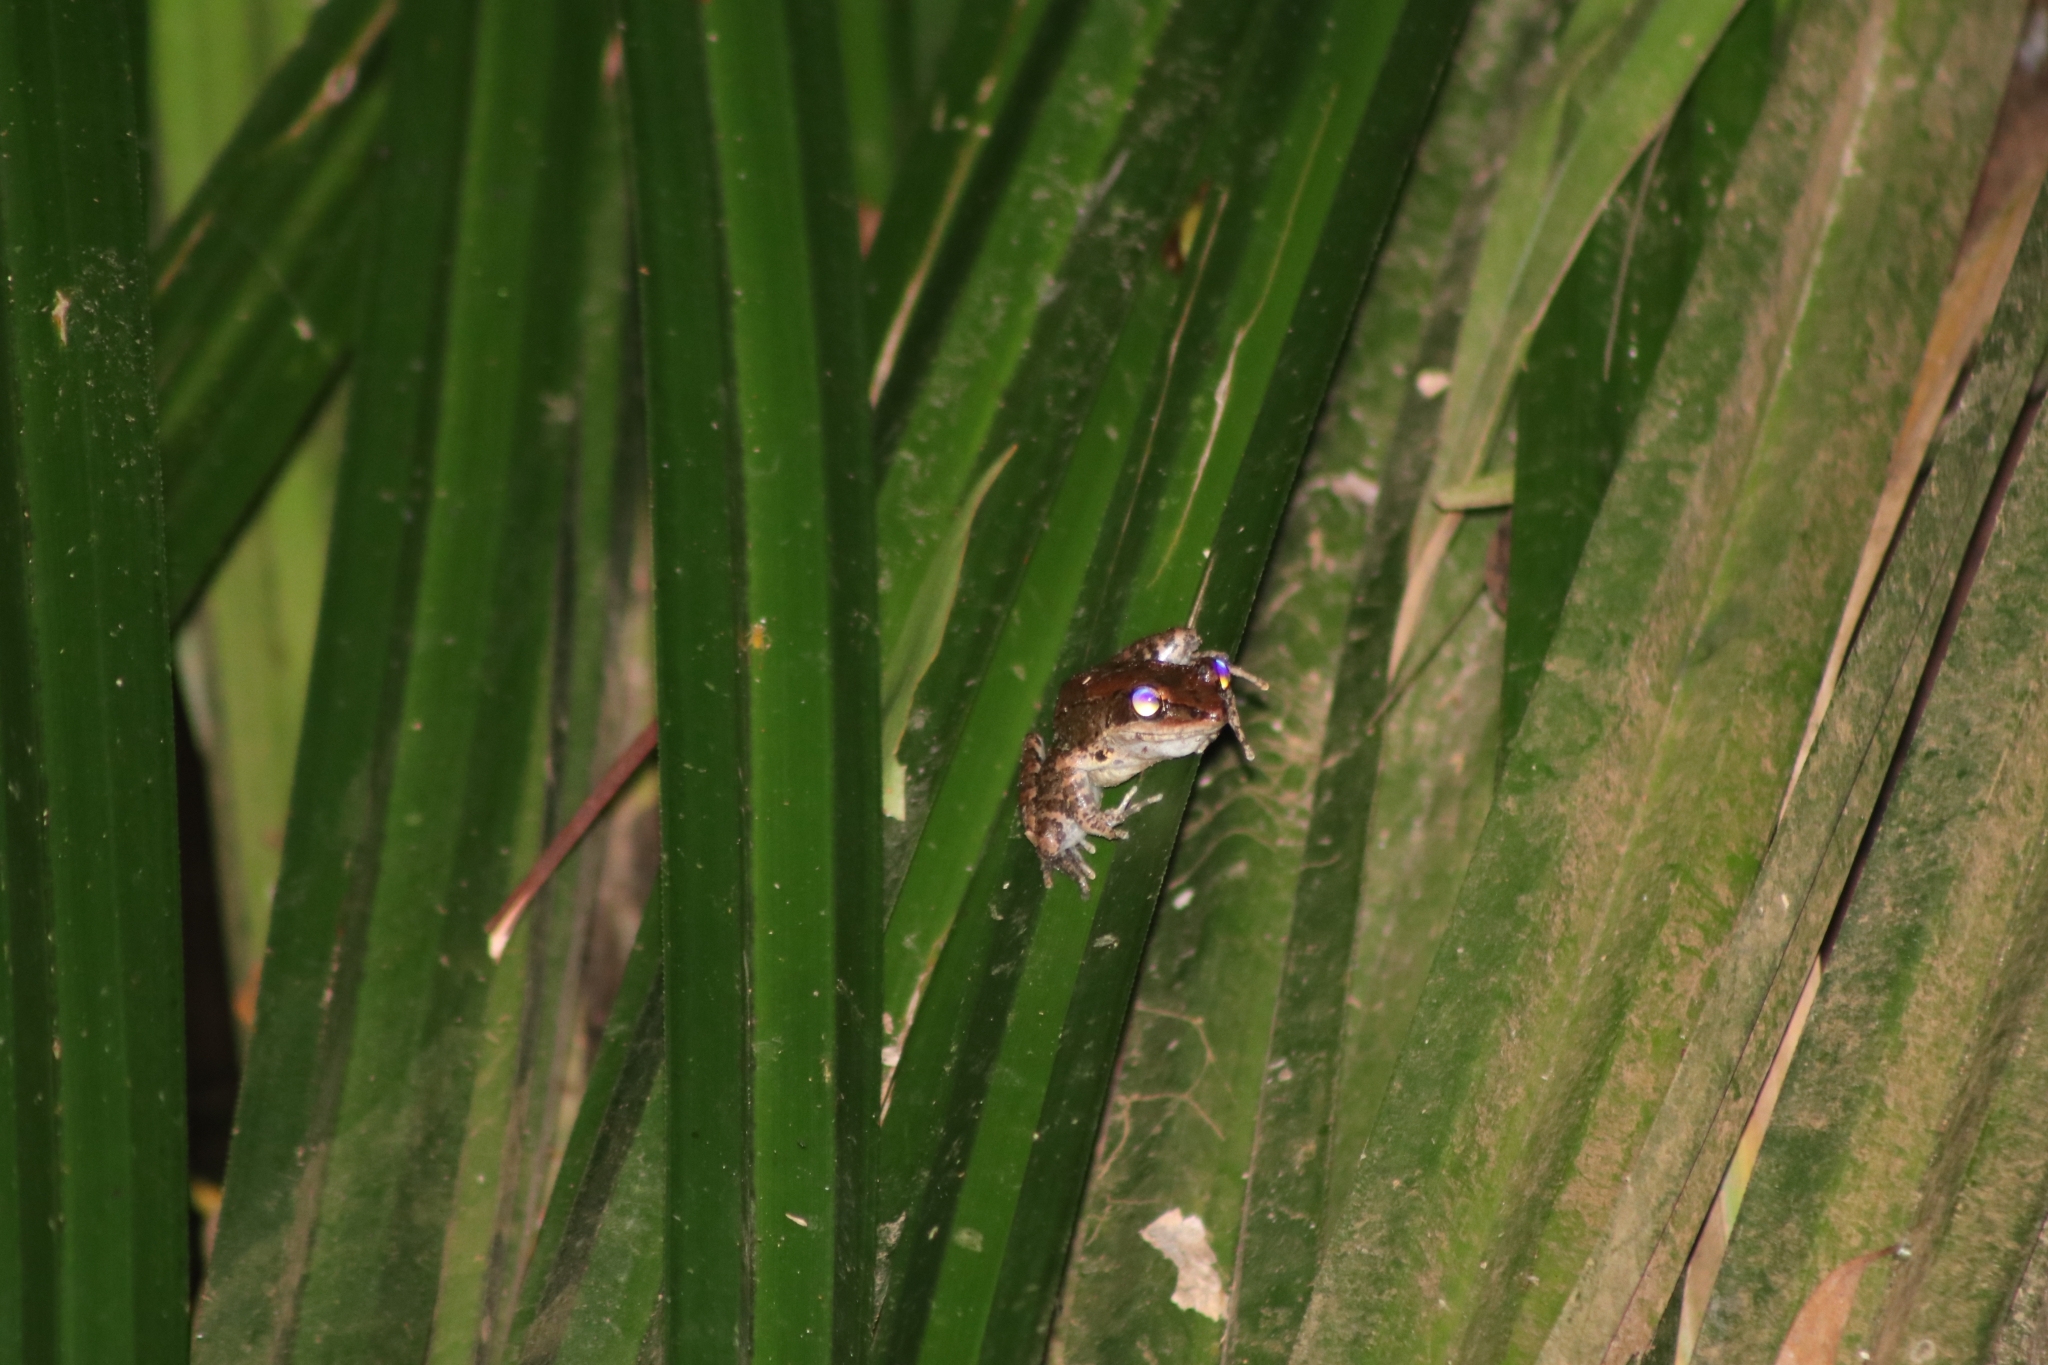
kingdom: Animalia
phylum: Chordata
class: Amphibia
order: Anura
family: Ranidae
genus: Papurana
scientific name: Papurana daemeli
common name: Arhem rana
